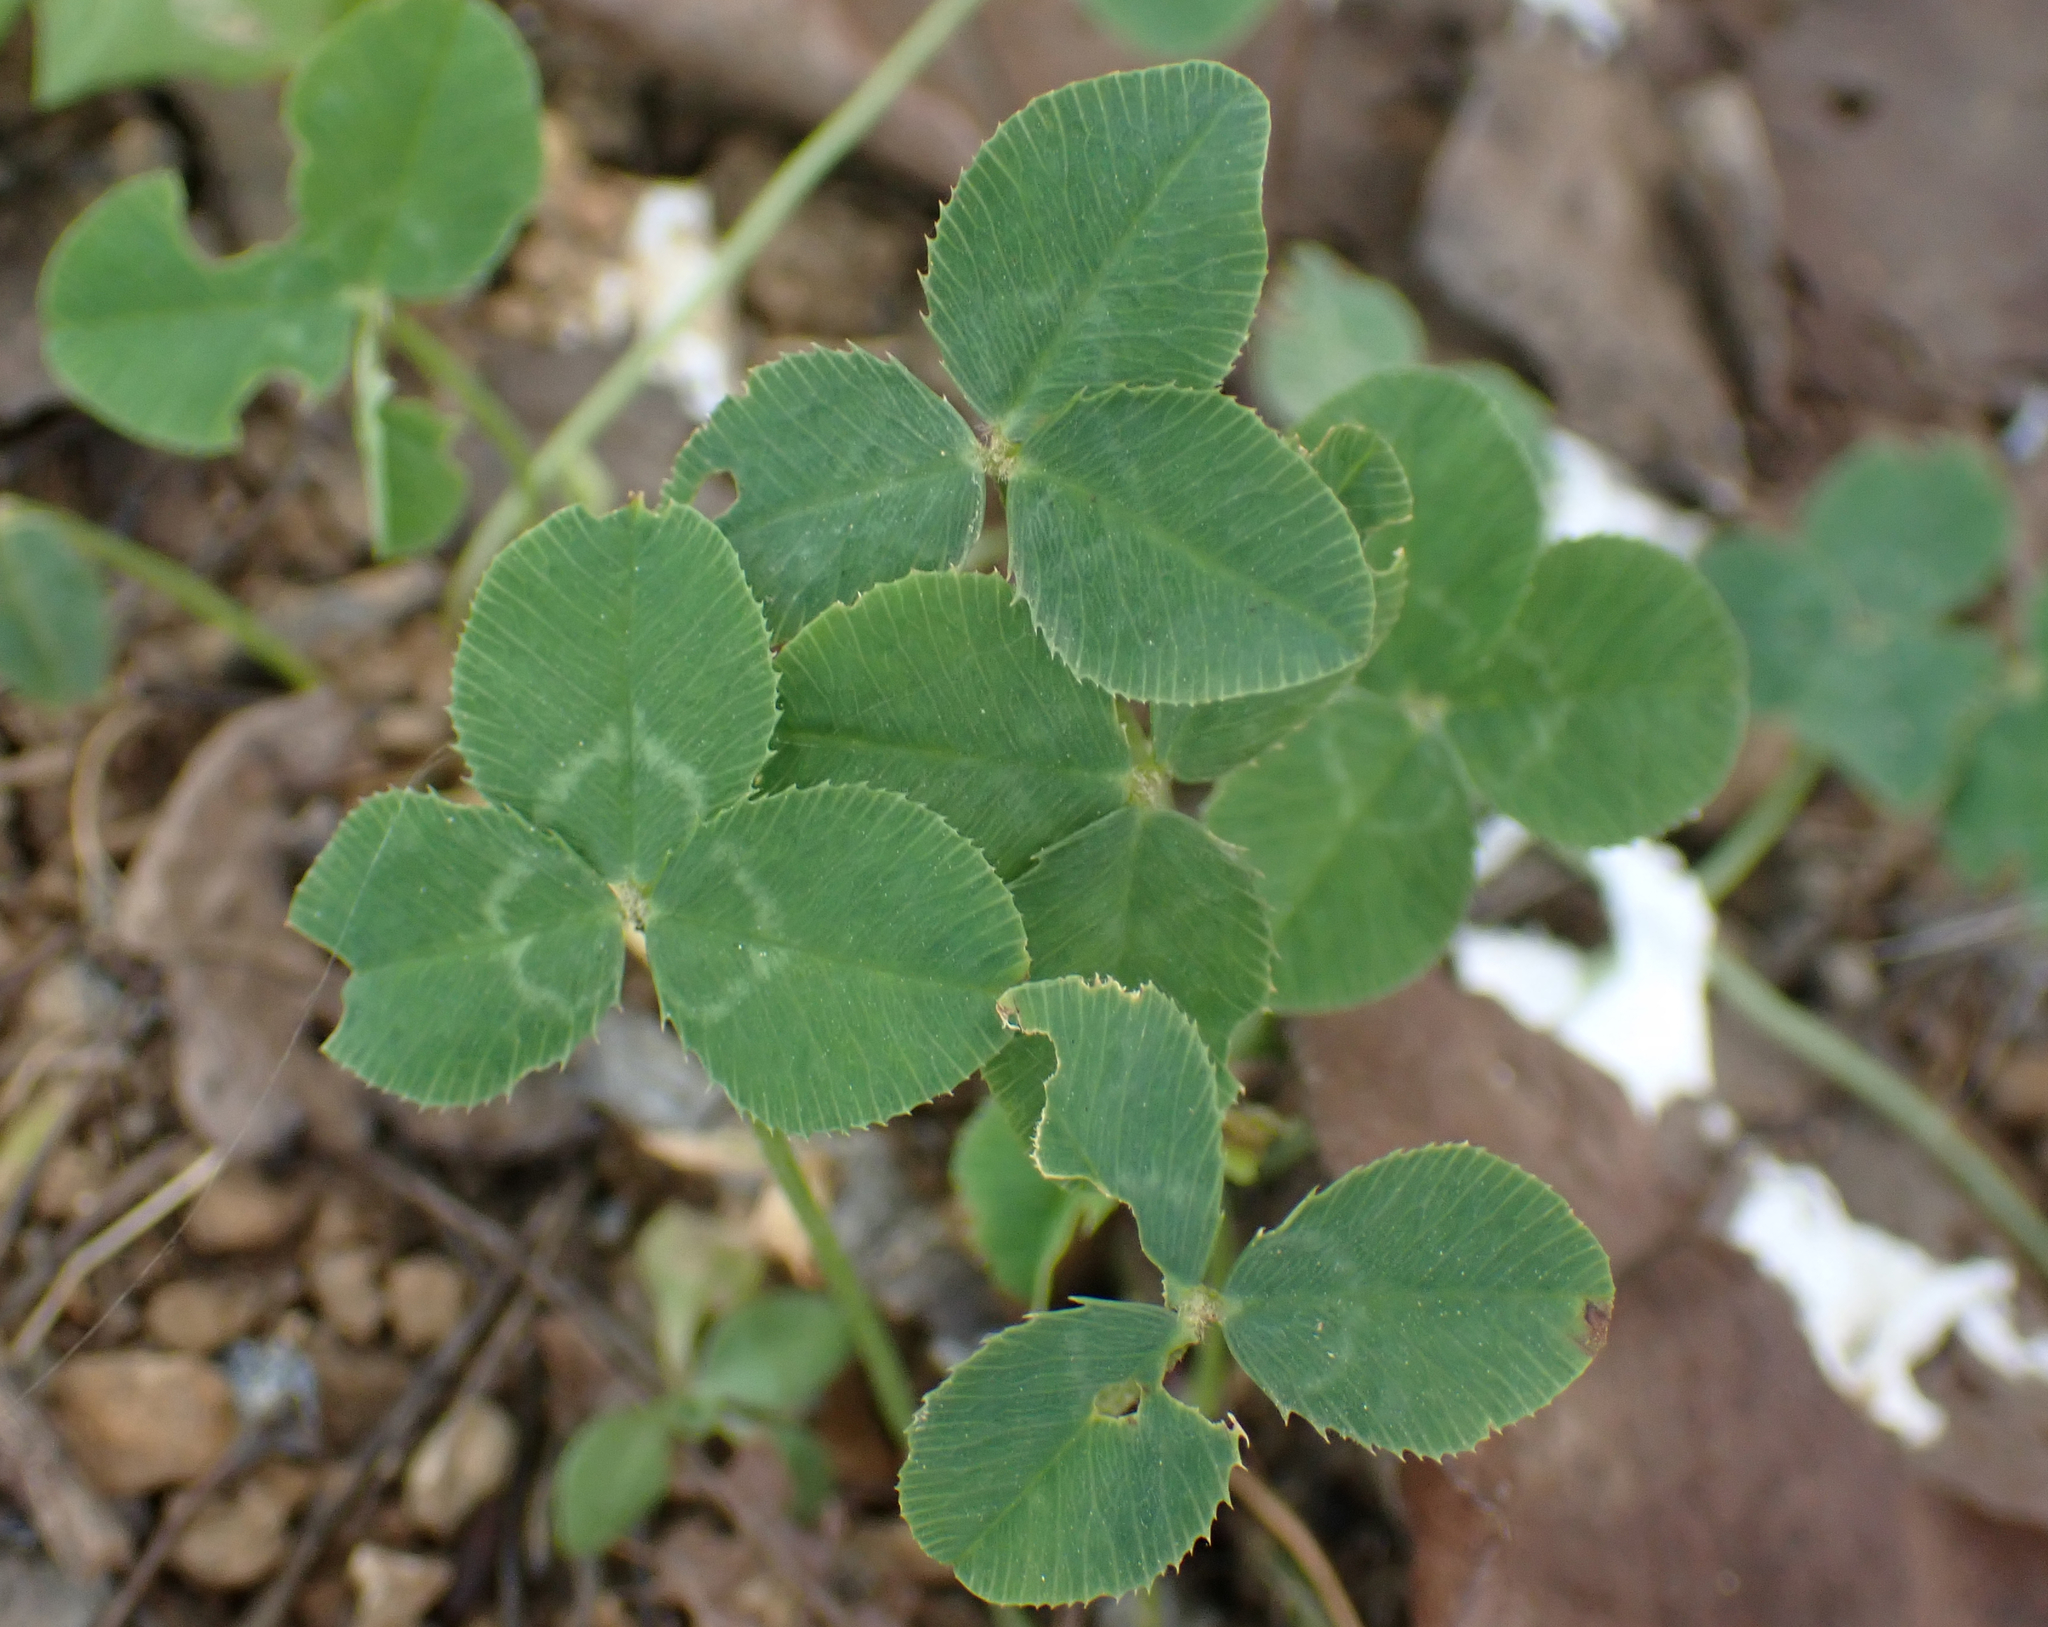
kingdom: Plantae
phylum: Tracheophyta
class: Magnoliopsida
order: Fabales
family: Fabaceae
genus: Trifolium
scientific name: Trifolium repens
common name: White clover
